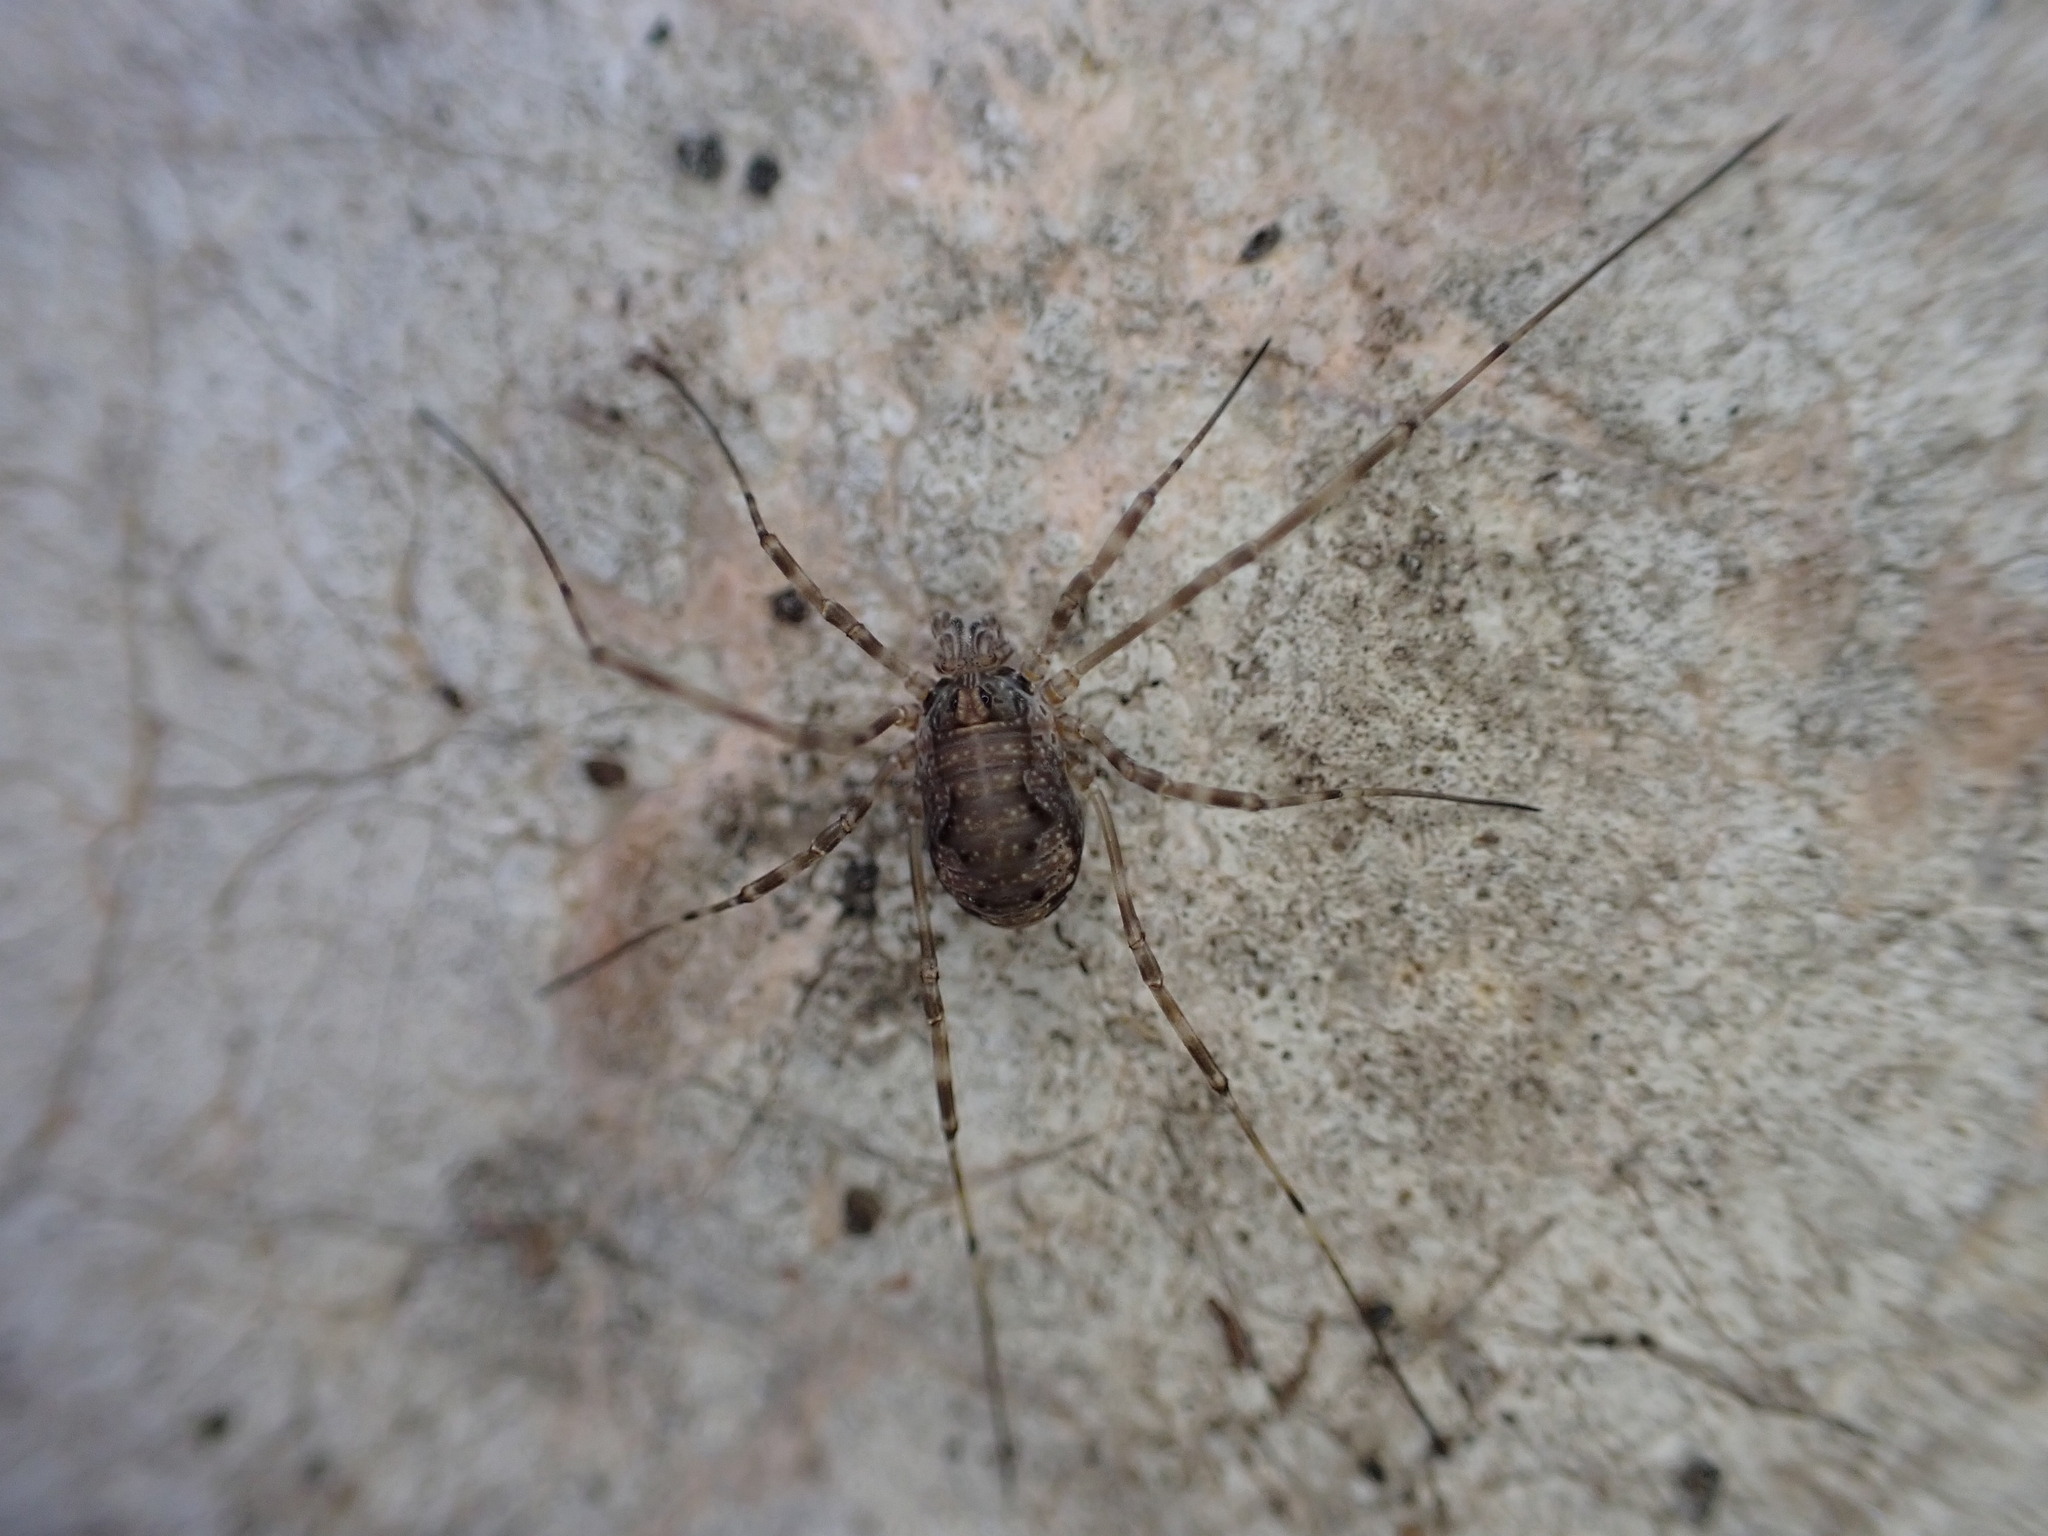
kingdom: Animalia
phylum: Arthropoda
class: Arachnida
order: Opiliones
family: Phalangiidae
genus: Dasylobus
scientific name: Dasylobus graniferus
